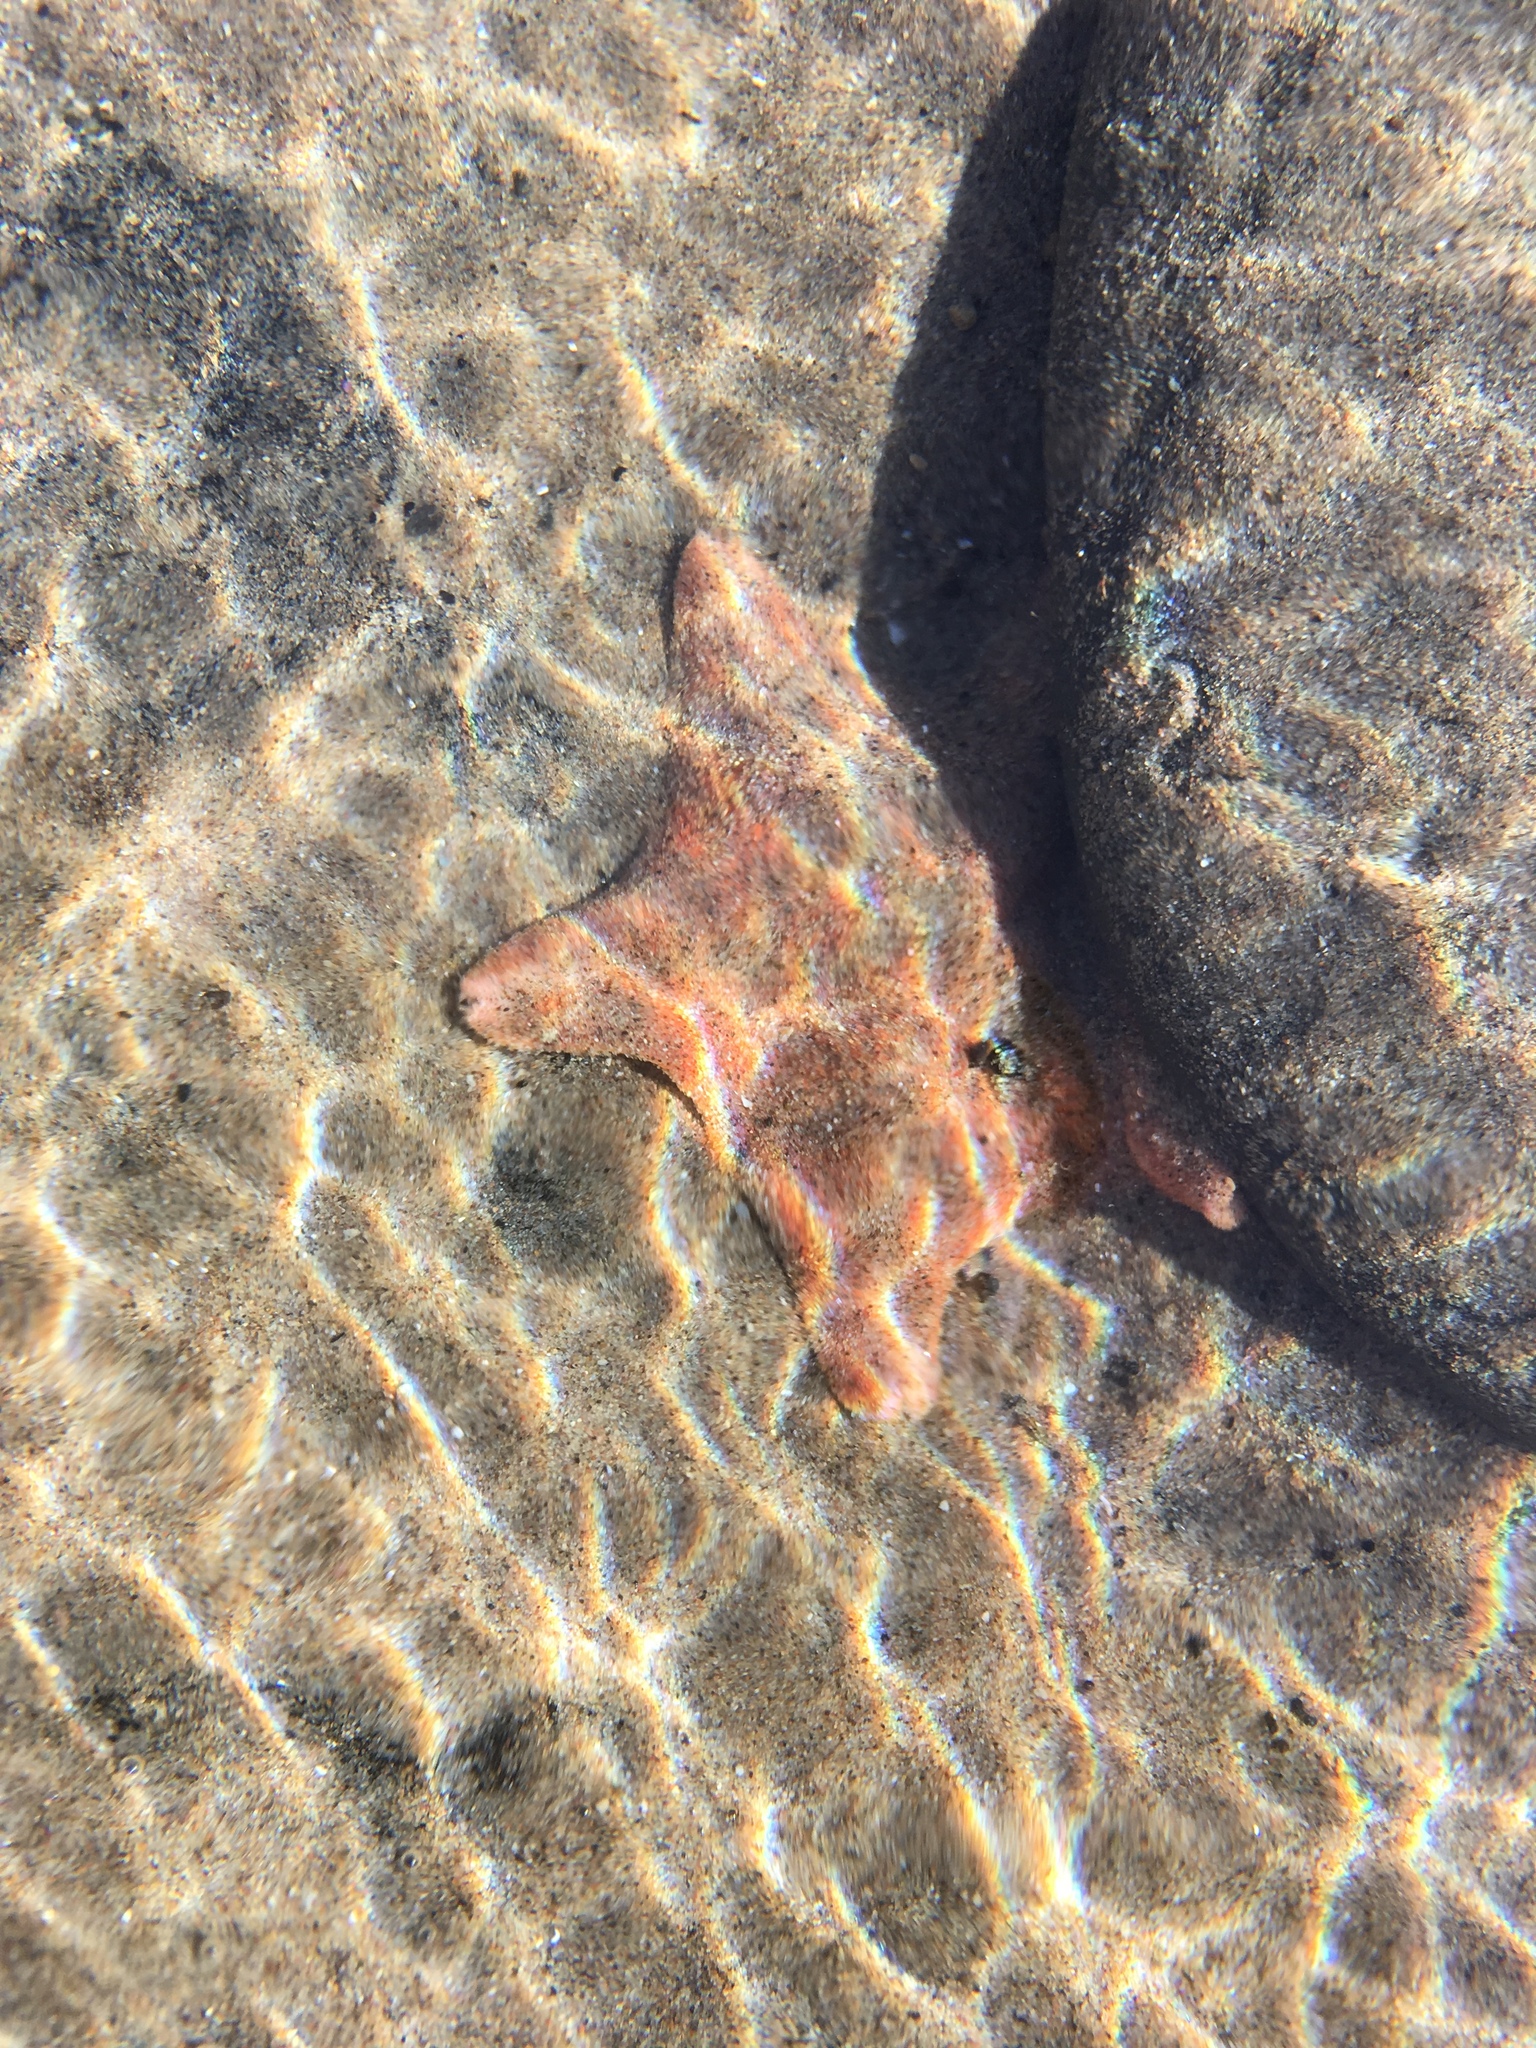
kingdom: Animalia
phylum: Echinodermata
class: Asteroidea
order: Valvatida
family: Asterinidae
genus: Patiria
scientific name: Patiria miniata
